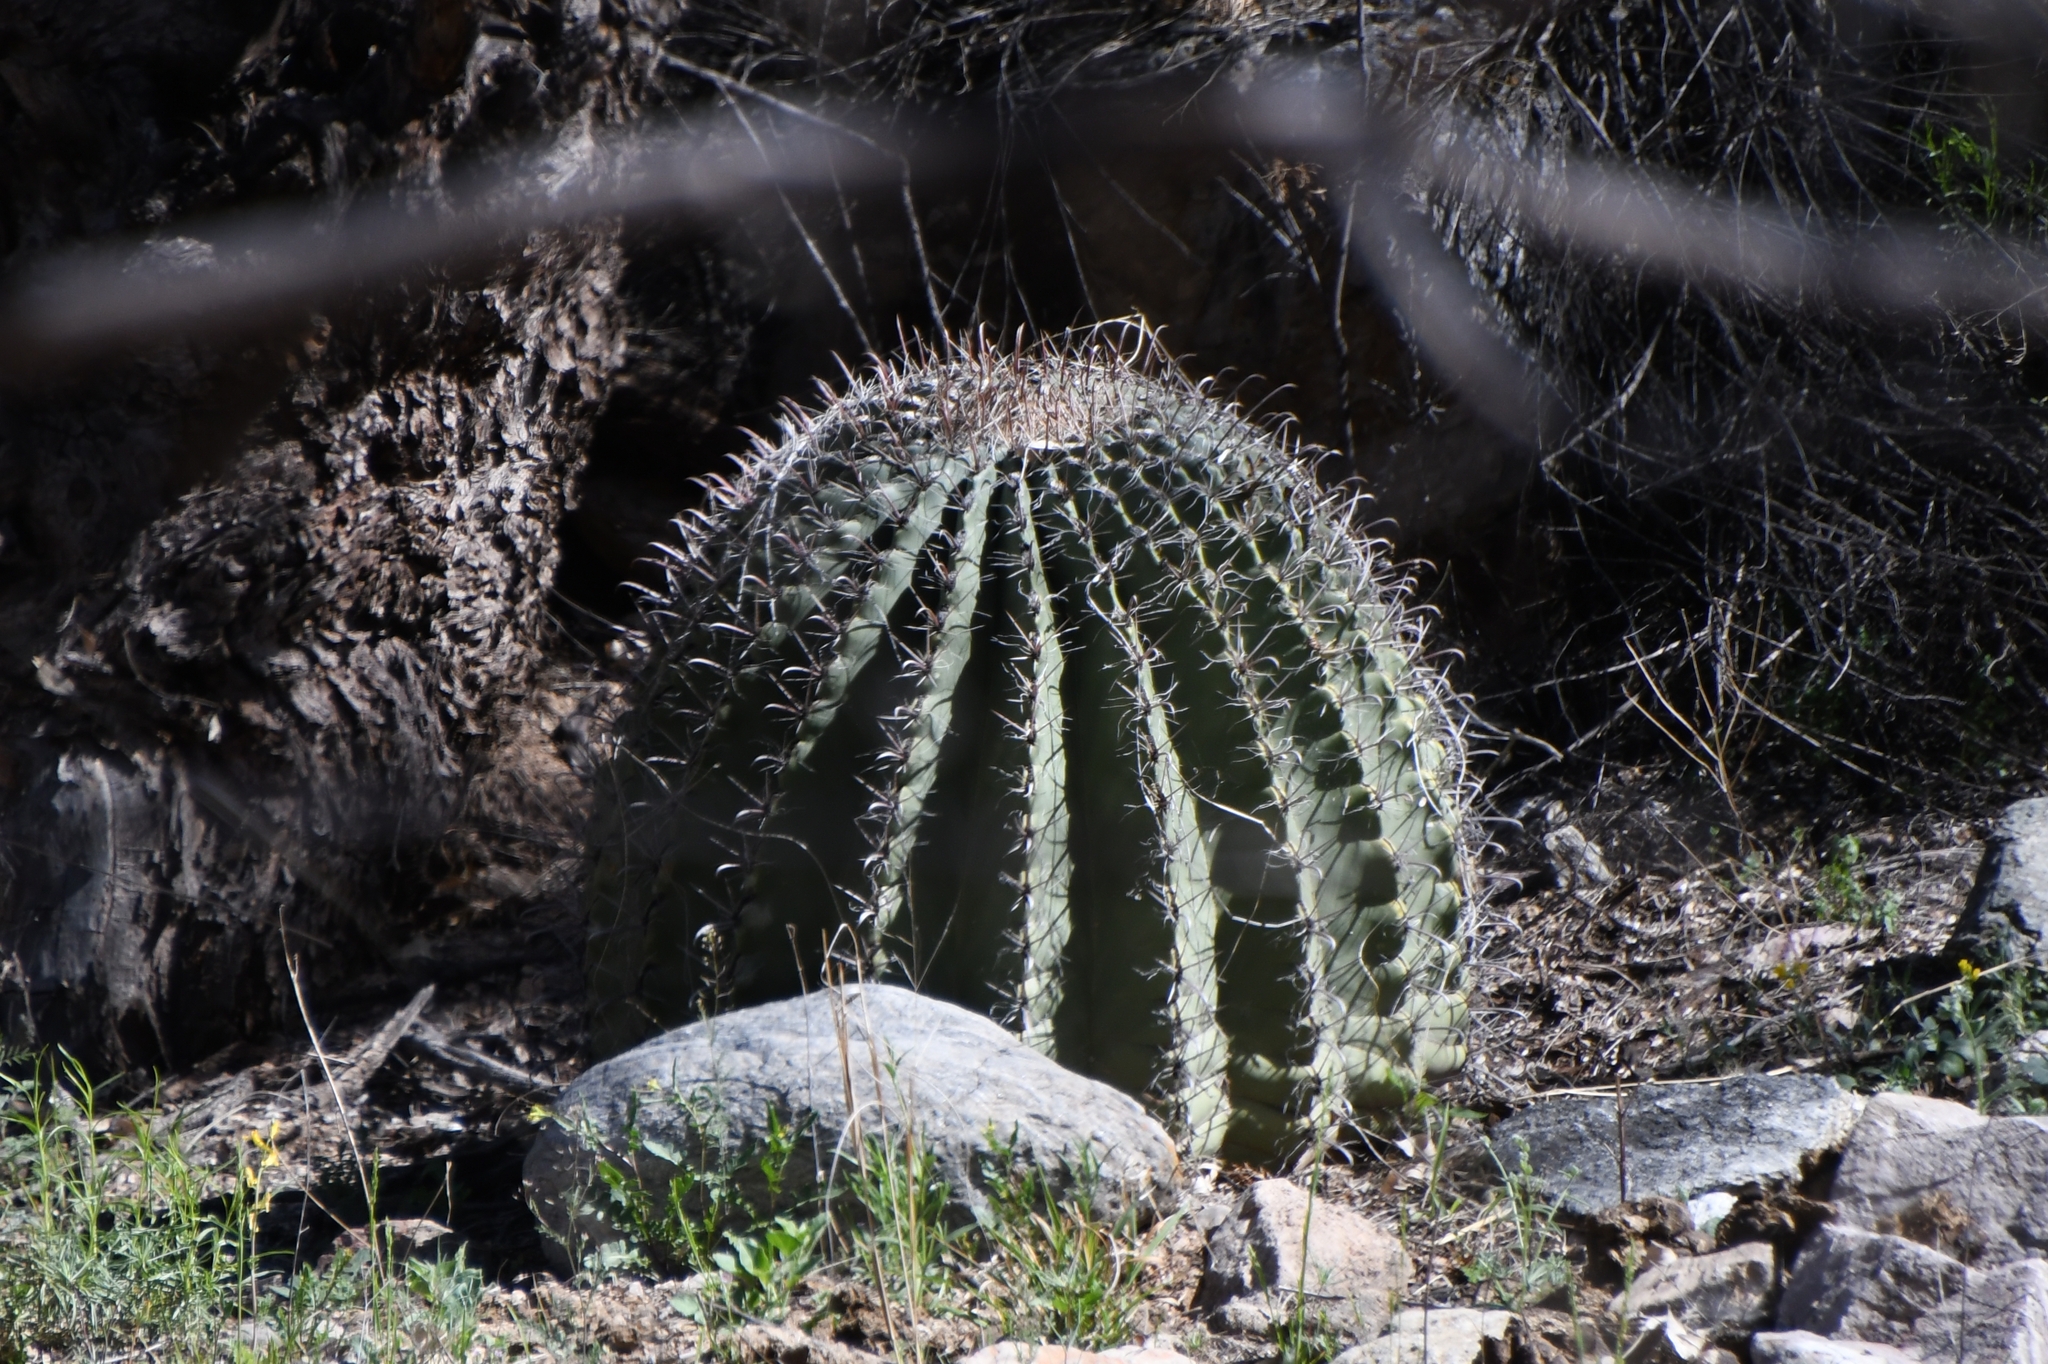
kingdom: Plantae
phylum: Tracheophyta
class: Magnoliopsida
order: Caryophyllales
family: Cactaceae
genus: Ferocactus
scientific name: Ferocactus wislizeni
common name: Candy barrel cactus
